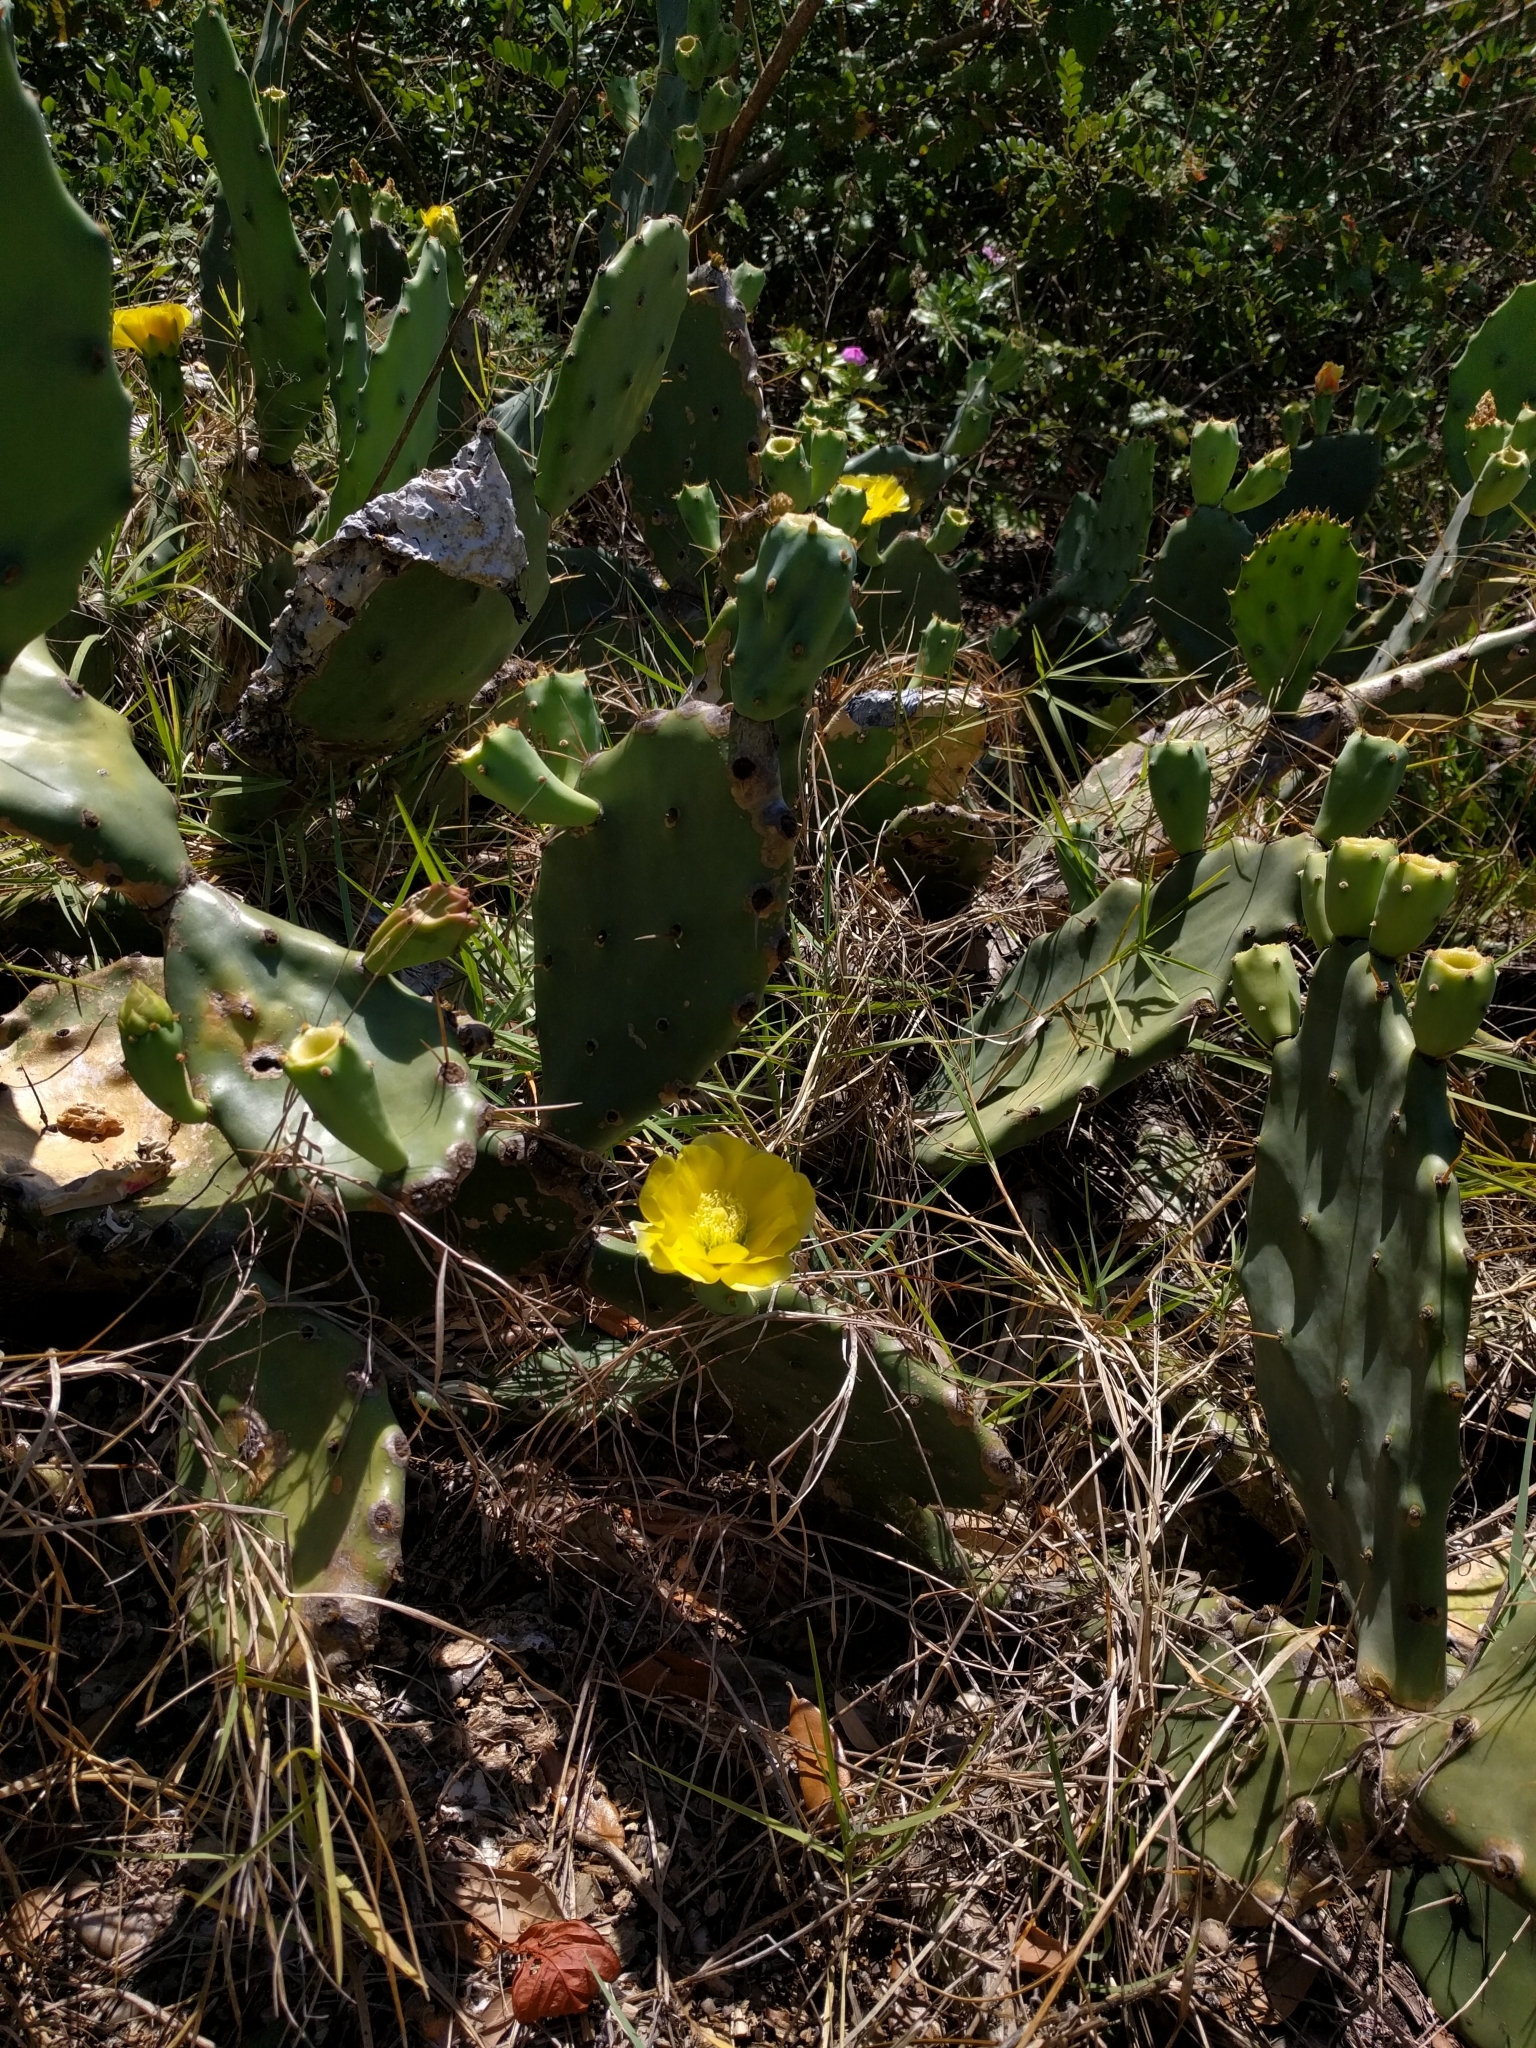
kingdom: Plantae
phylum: Tracheophyta
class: Magnoliopsida
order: Caryophyllales
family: Cactaceae
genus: Opuntia
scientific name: Opuntia humifusa
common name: Eastern prickly-pear
